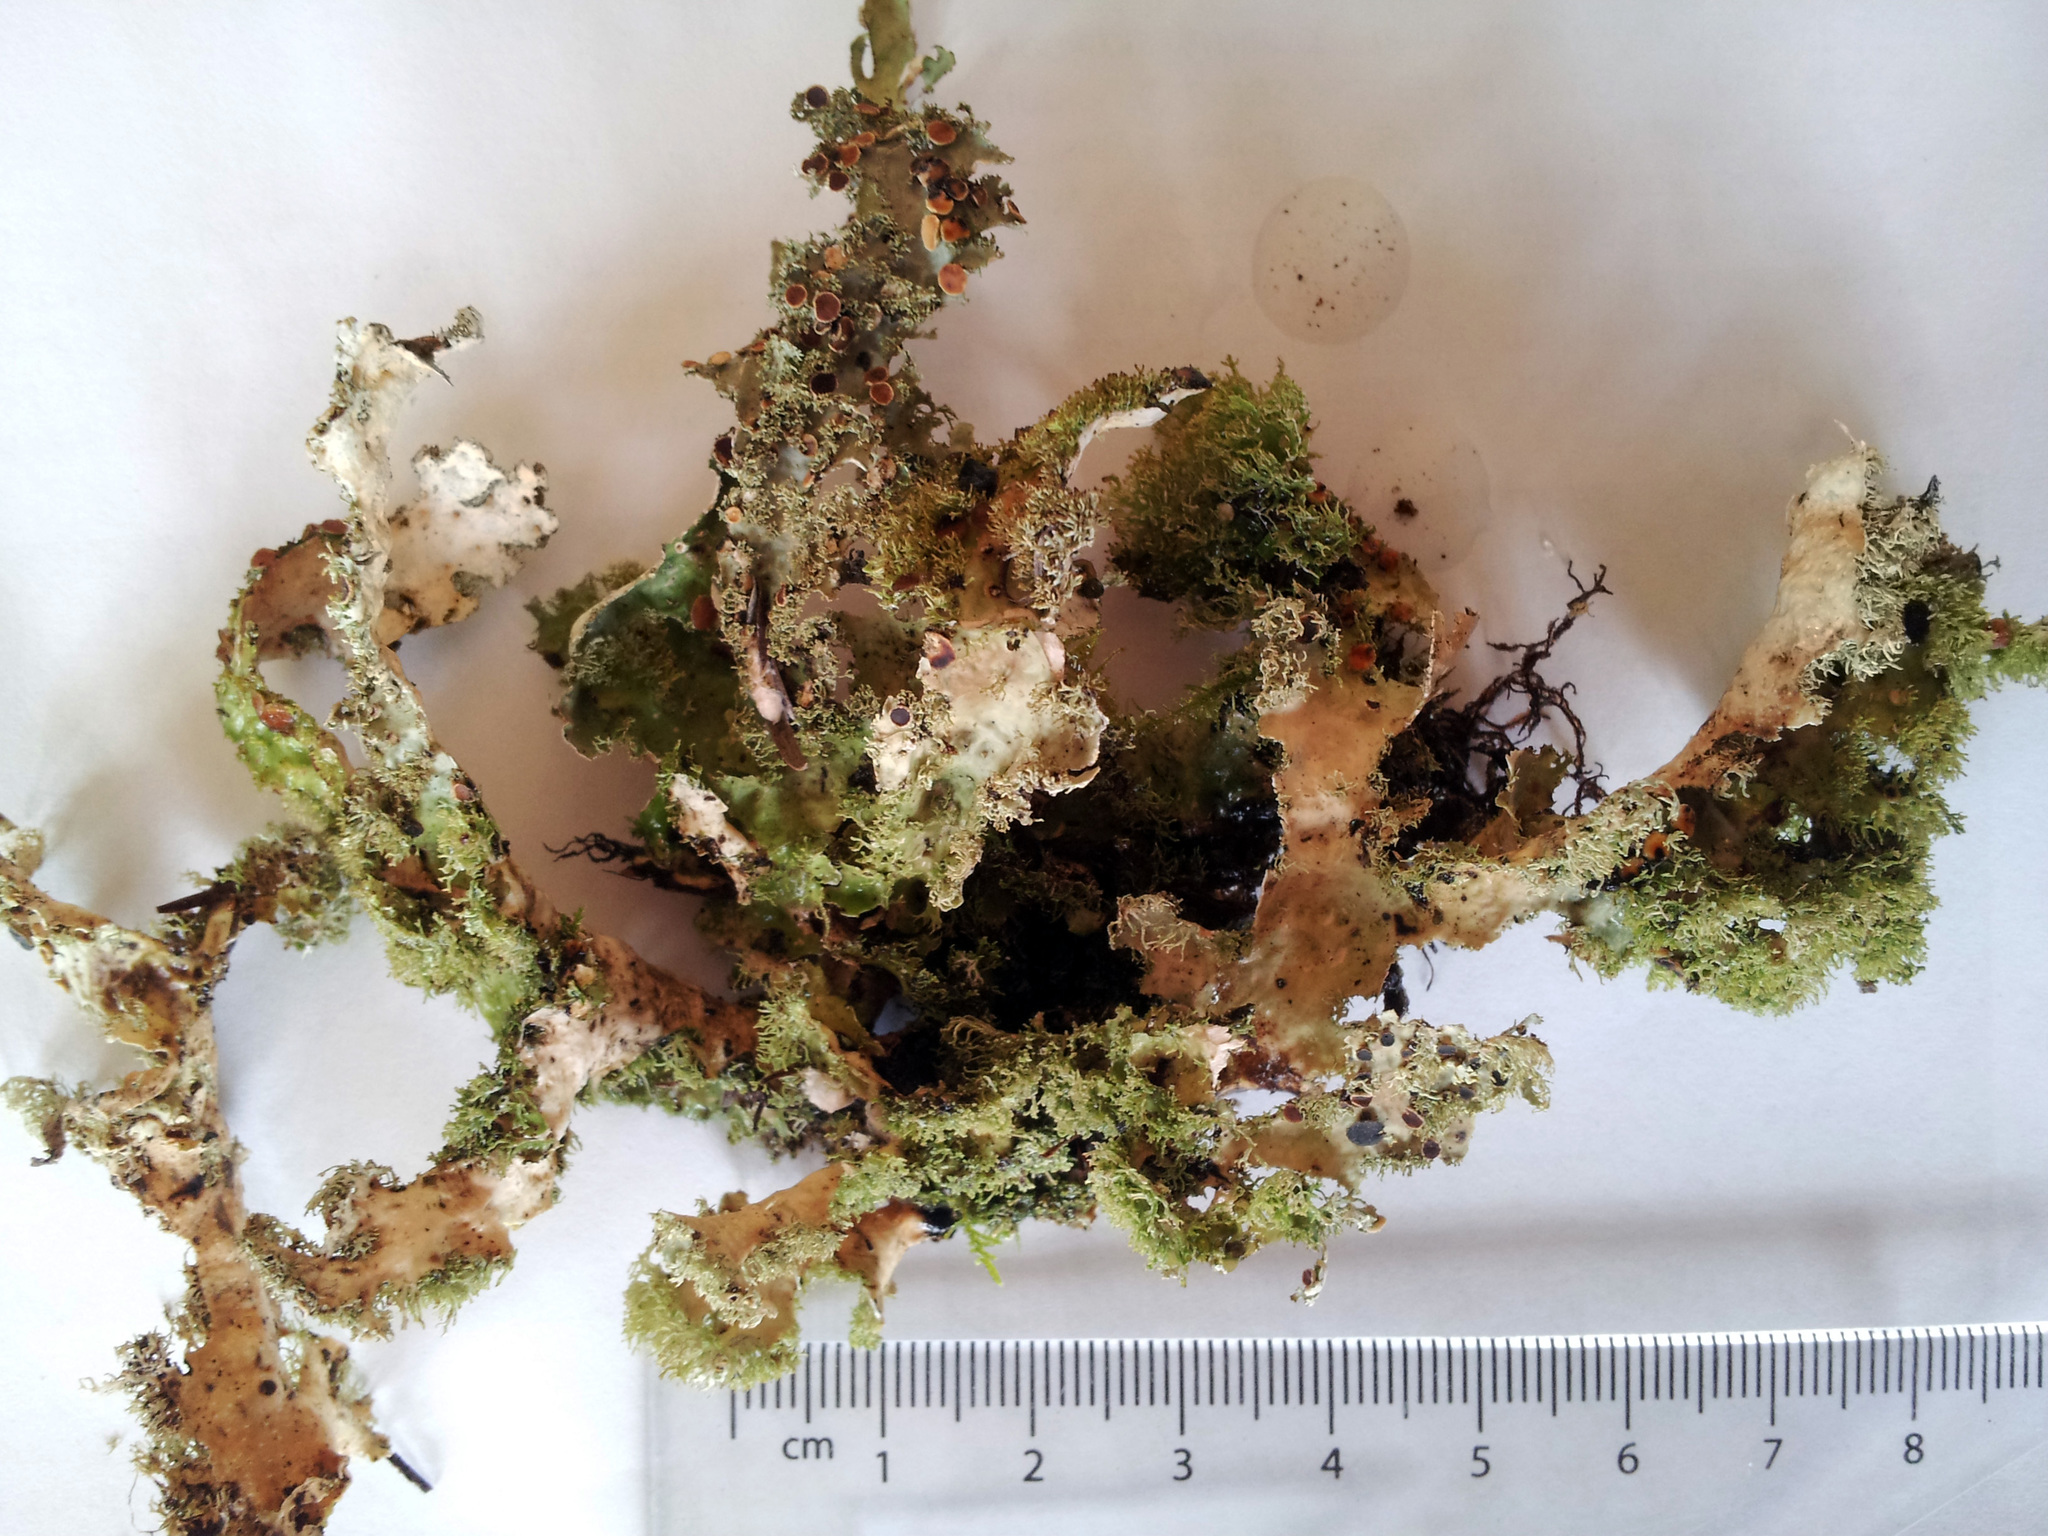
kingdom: Fungi
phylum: Ascomycota
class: Lecanoromycetes
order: Peltigerales
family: Lobariaceae
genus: Pseudocyphellaria
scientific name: Pseudocyphellaria chloroleuca
